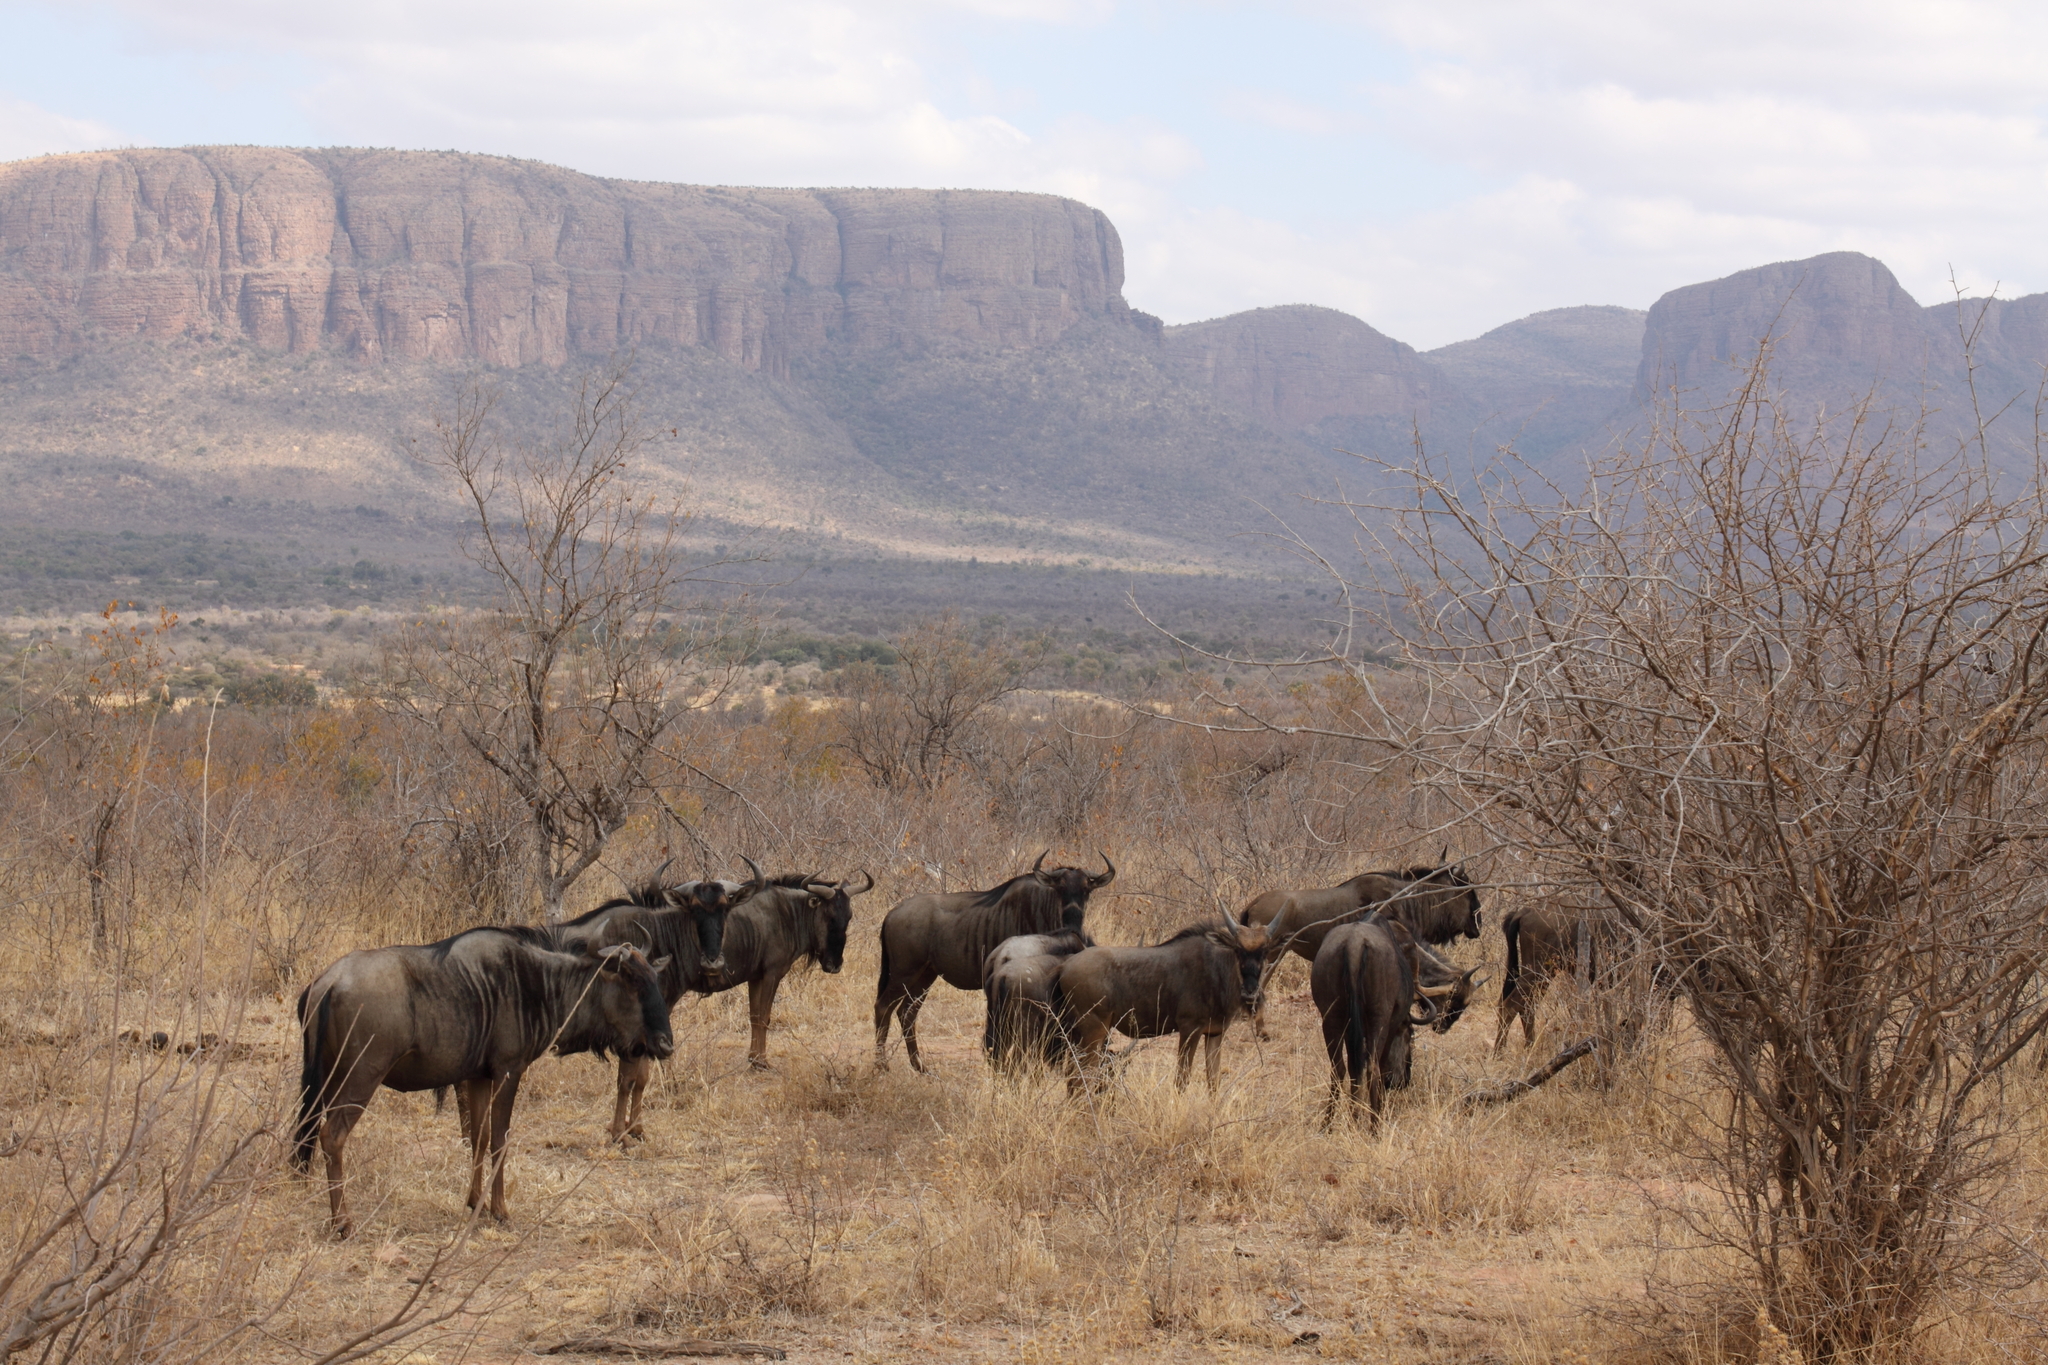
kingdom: Animalia
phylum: Chordata
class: Mammalia
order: Artiodactyla
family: Bovidae
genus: Connochaetes
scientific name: Connochaetes taurinus
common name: Blue wildebeest
